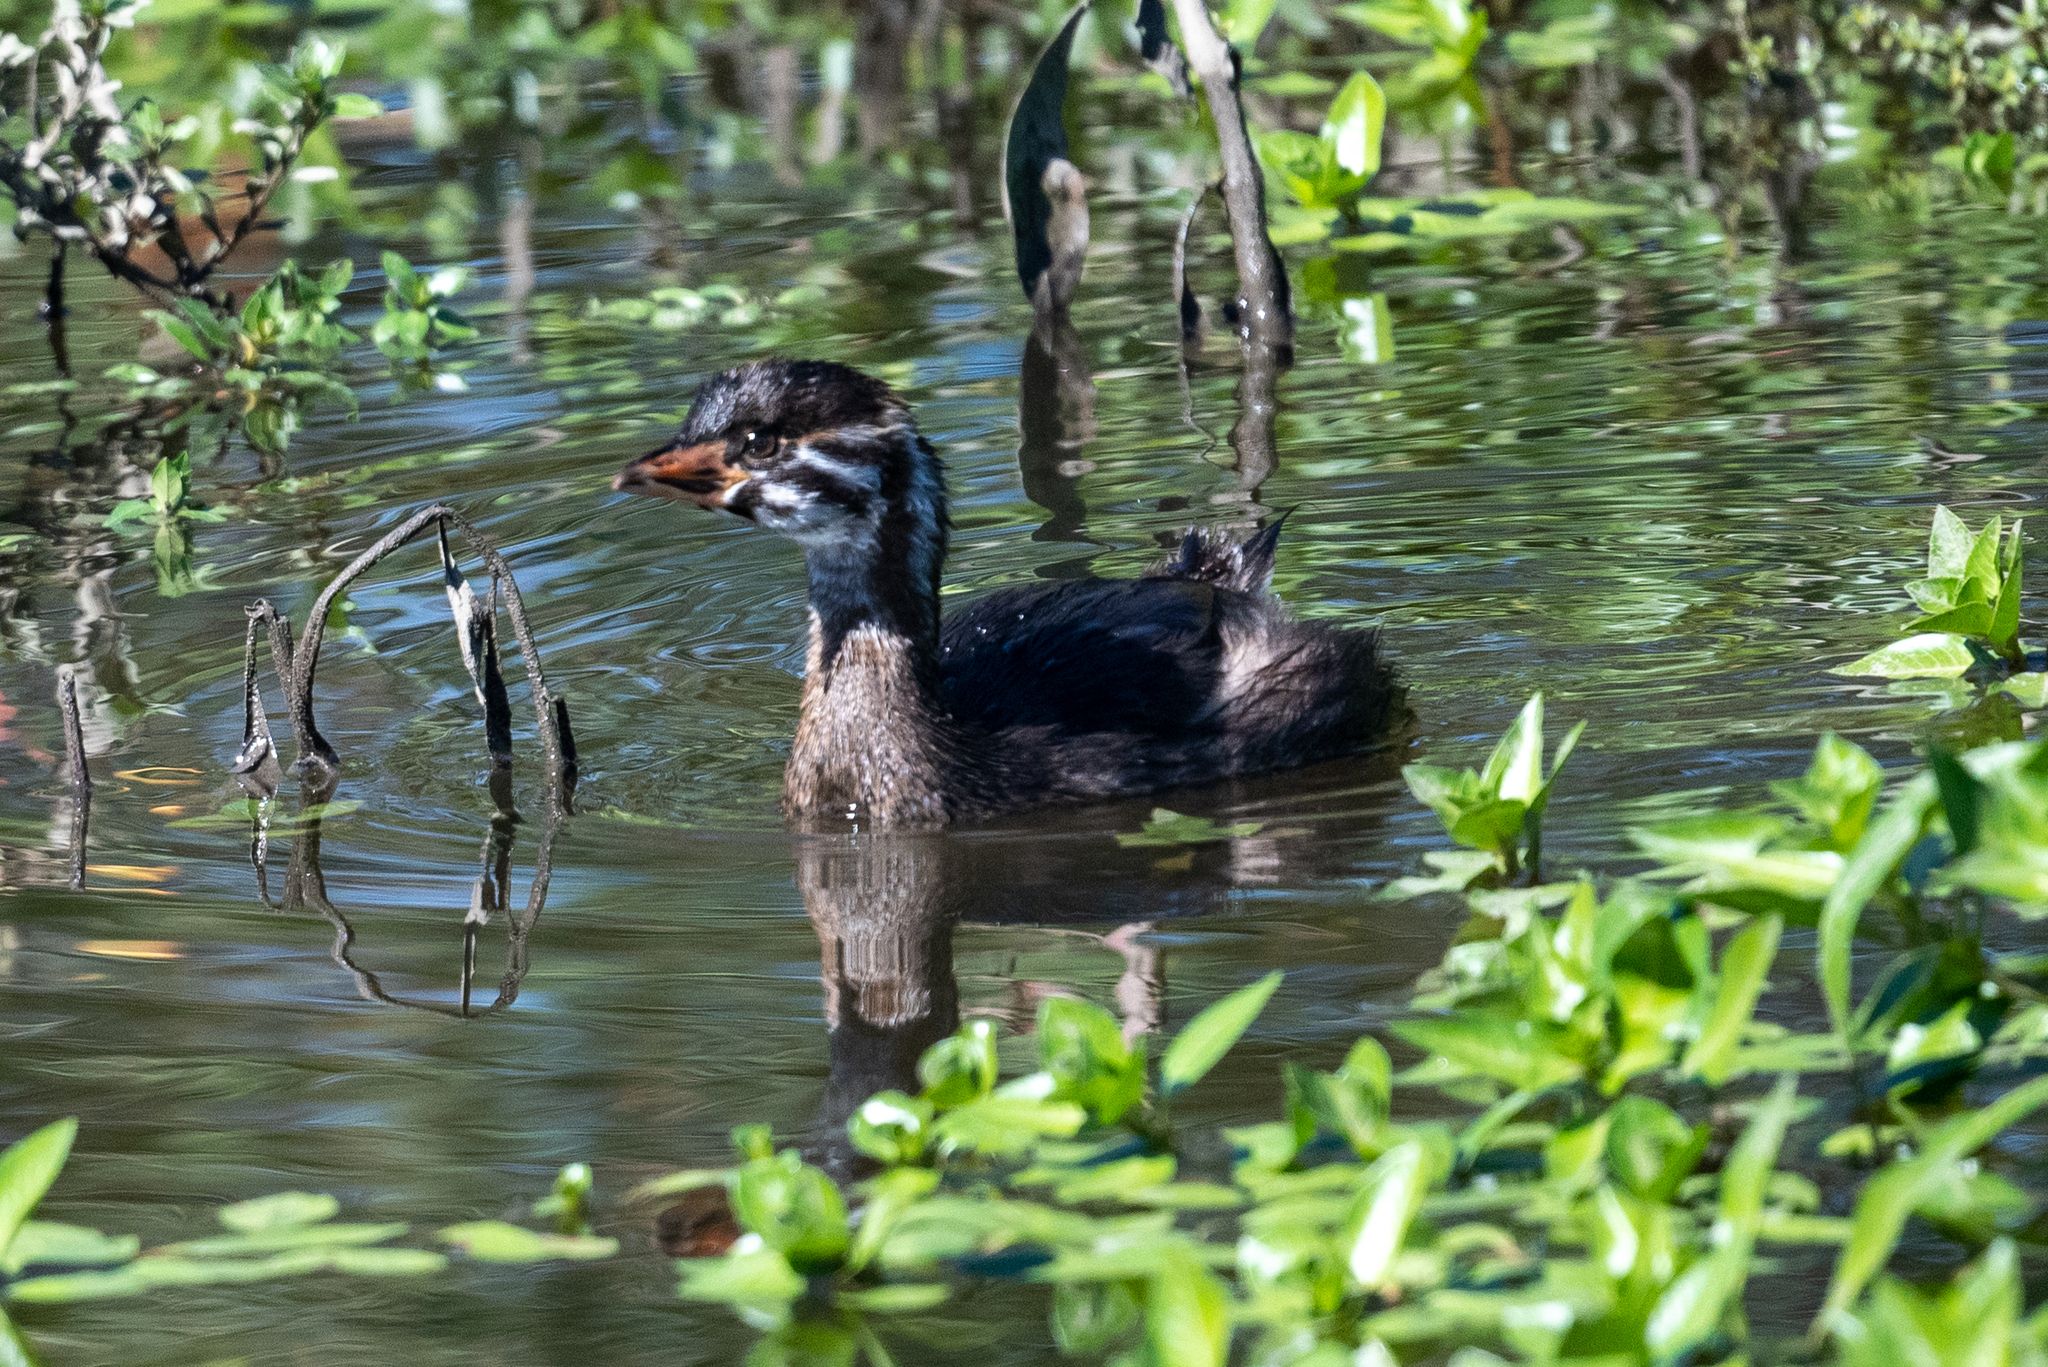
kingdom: Animalia
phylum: Chordata
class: Aves
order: Podicipediformes
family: Podicipedidae
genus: Podilymbus
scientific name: Podilymbus podiceps
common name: Pied-billed grebe
